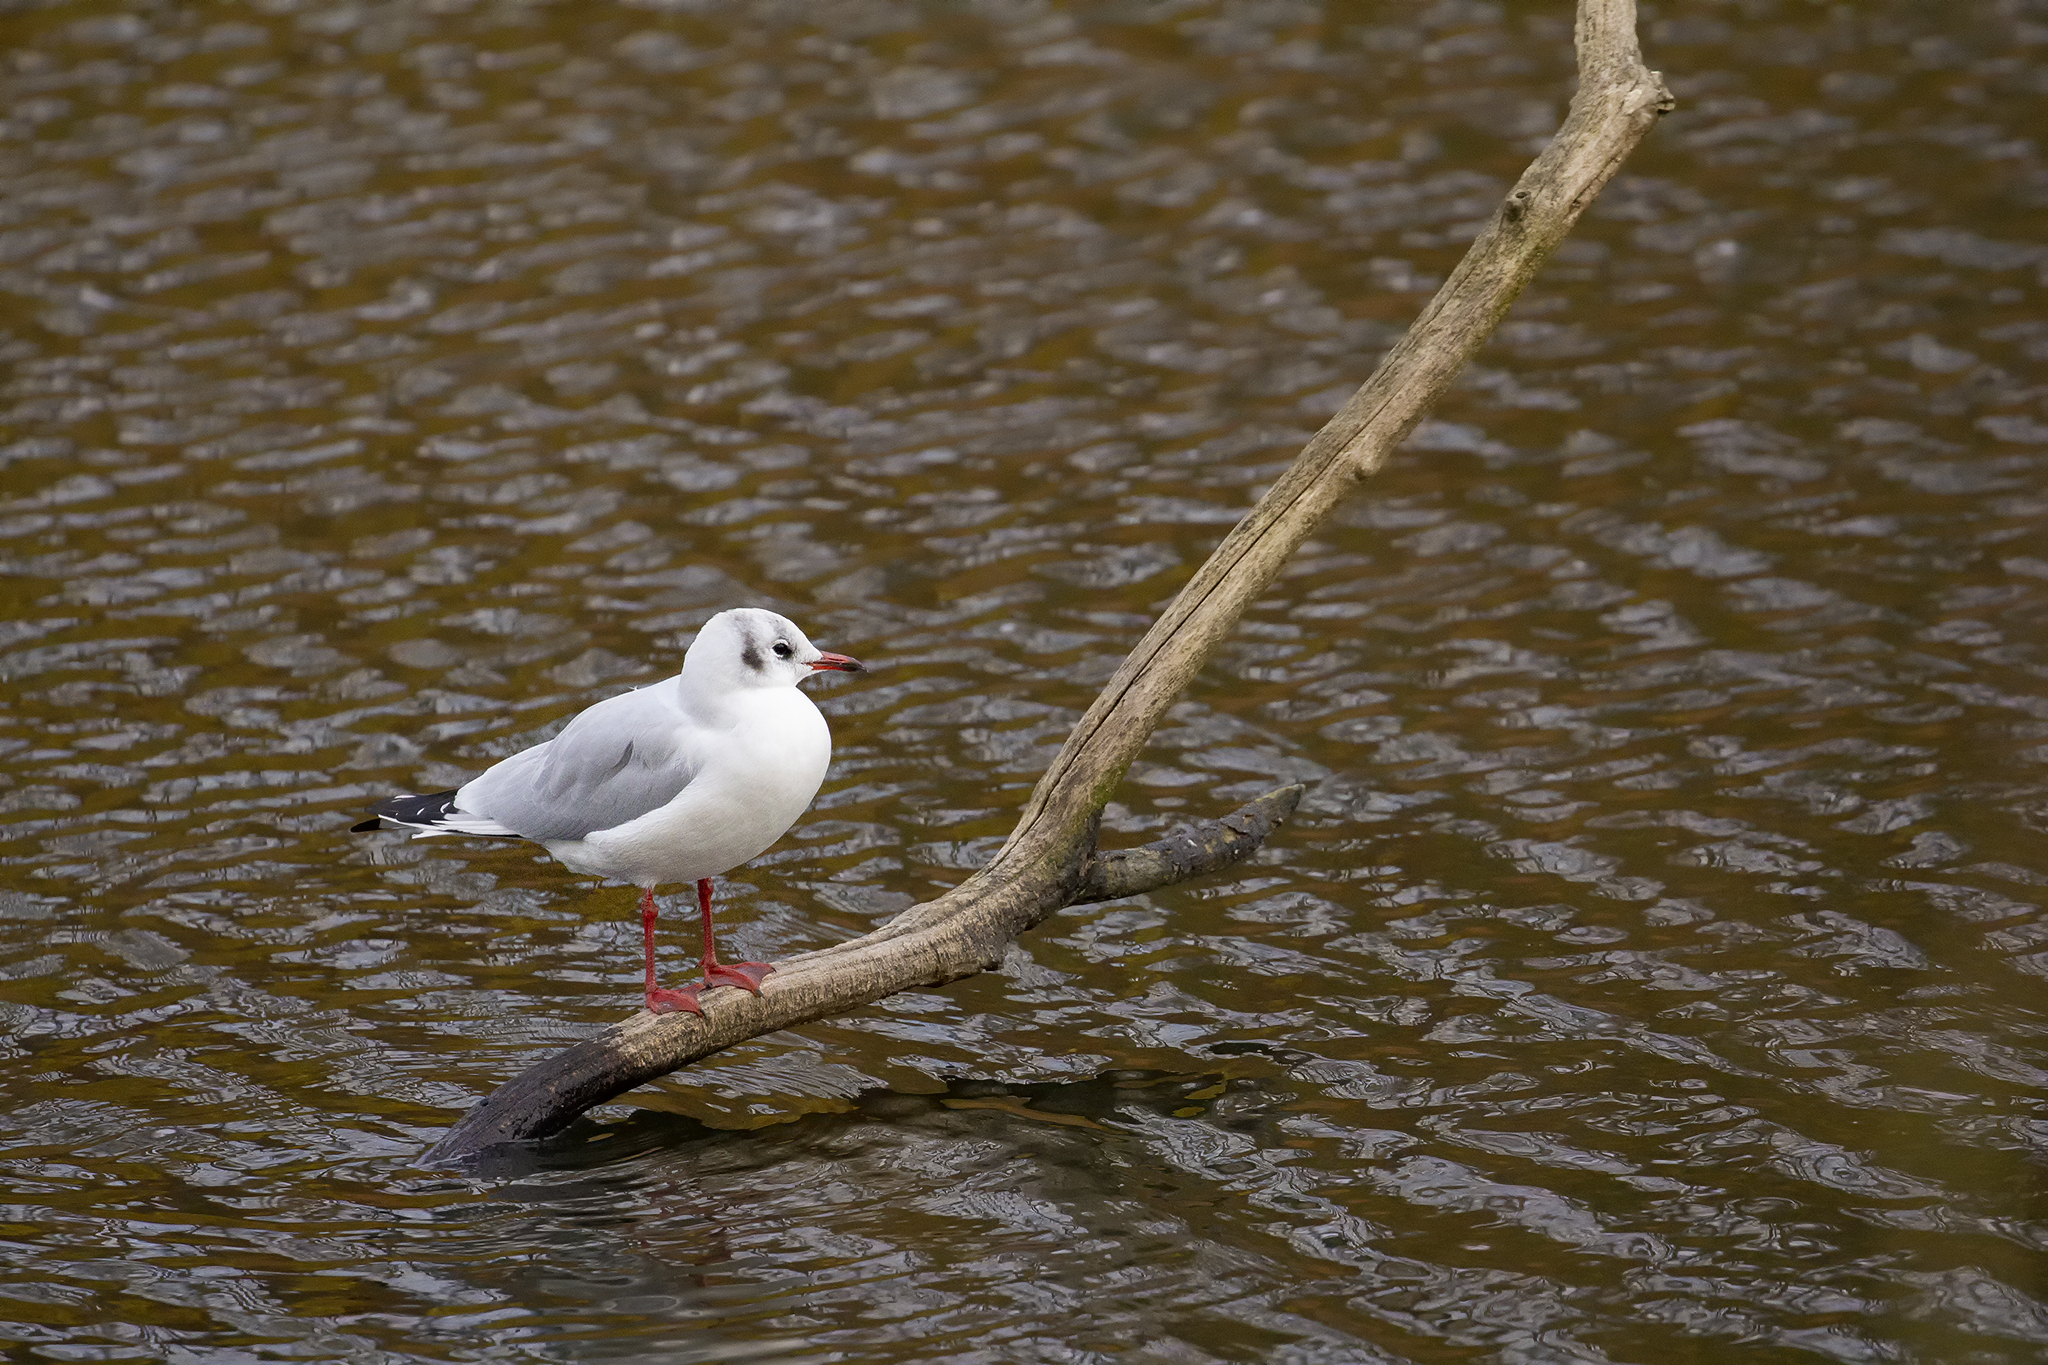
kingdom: Animalia
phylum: Chordata
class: Aves
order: Charadriiformes
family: Laridae
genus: Chroicocephalus
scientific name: Chroicocephalus ridibundus
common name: Black-headed gull
